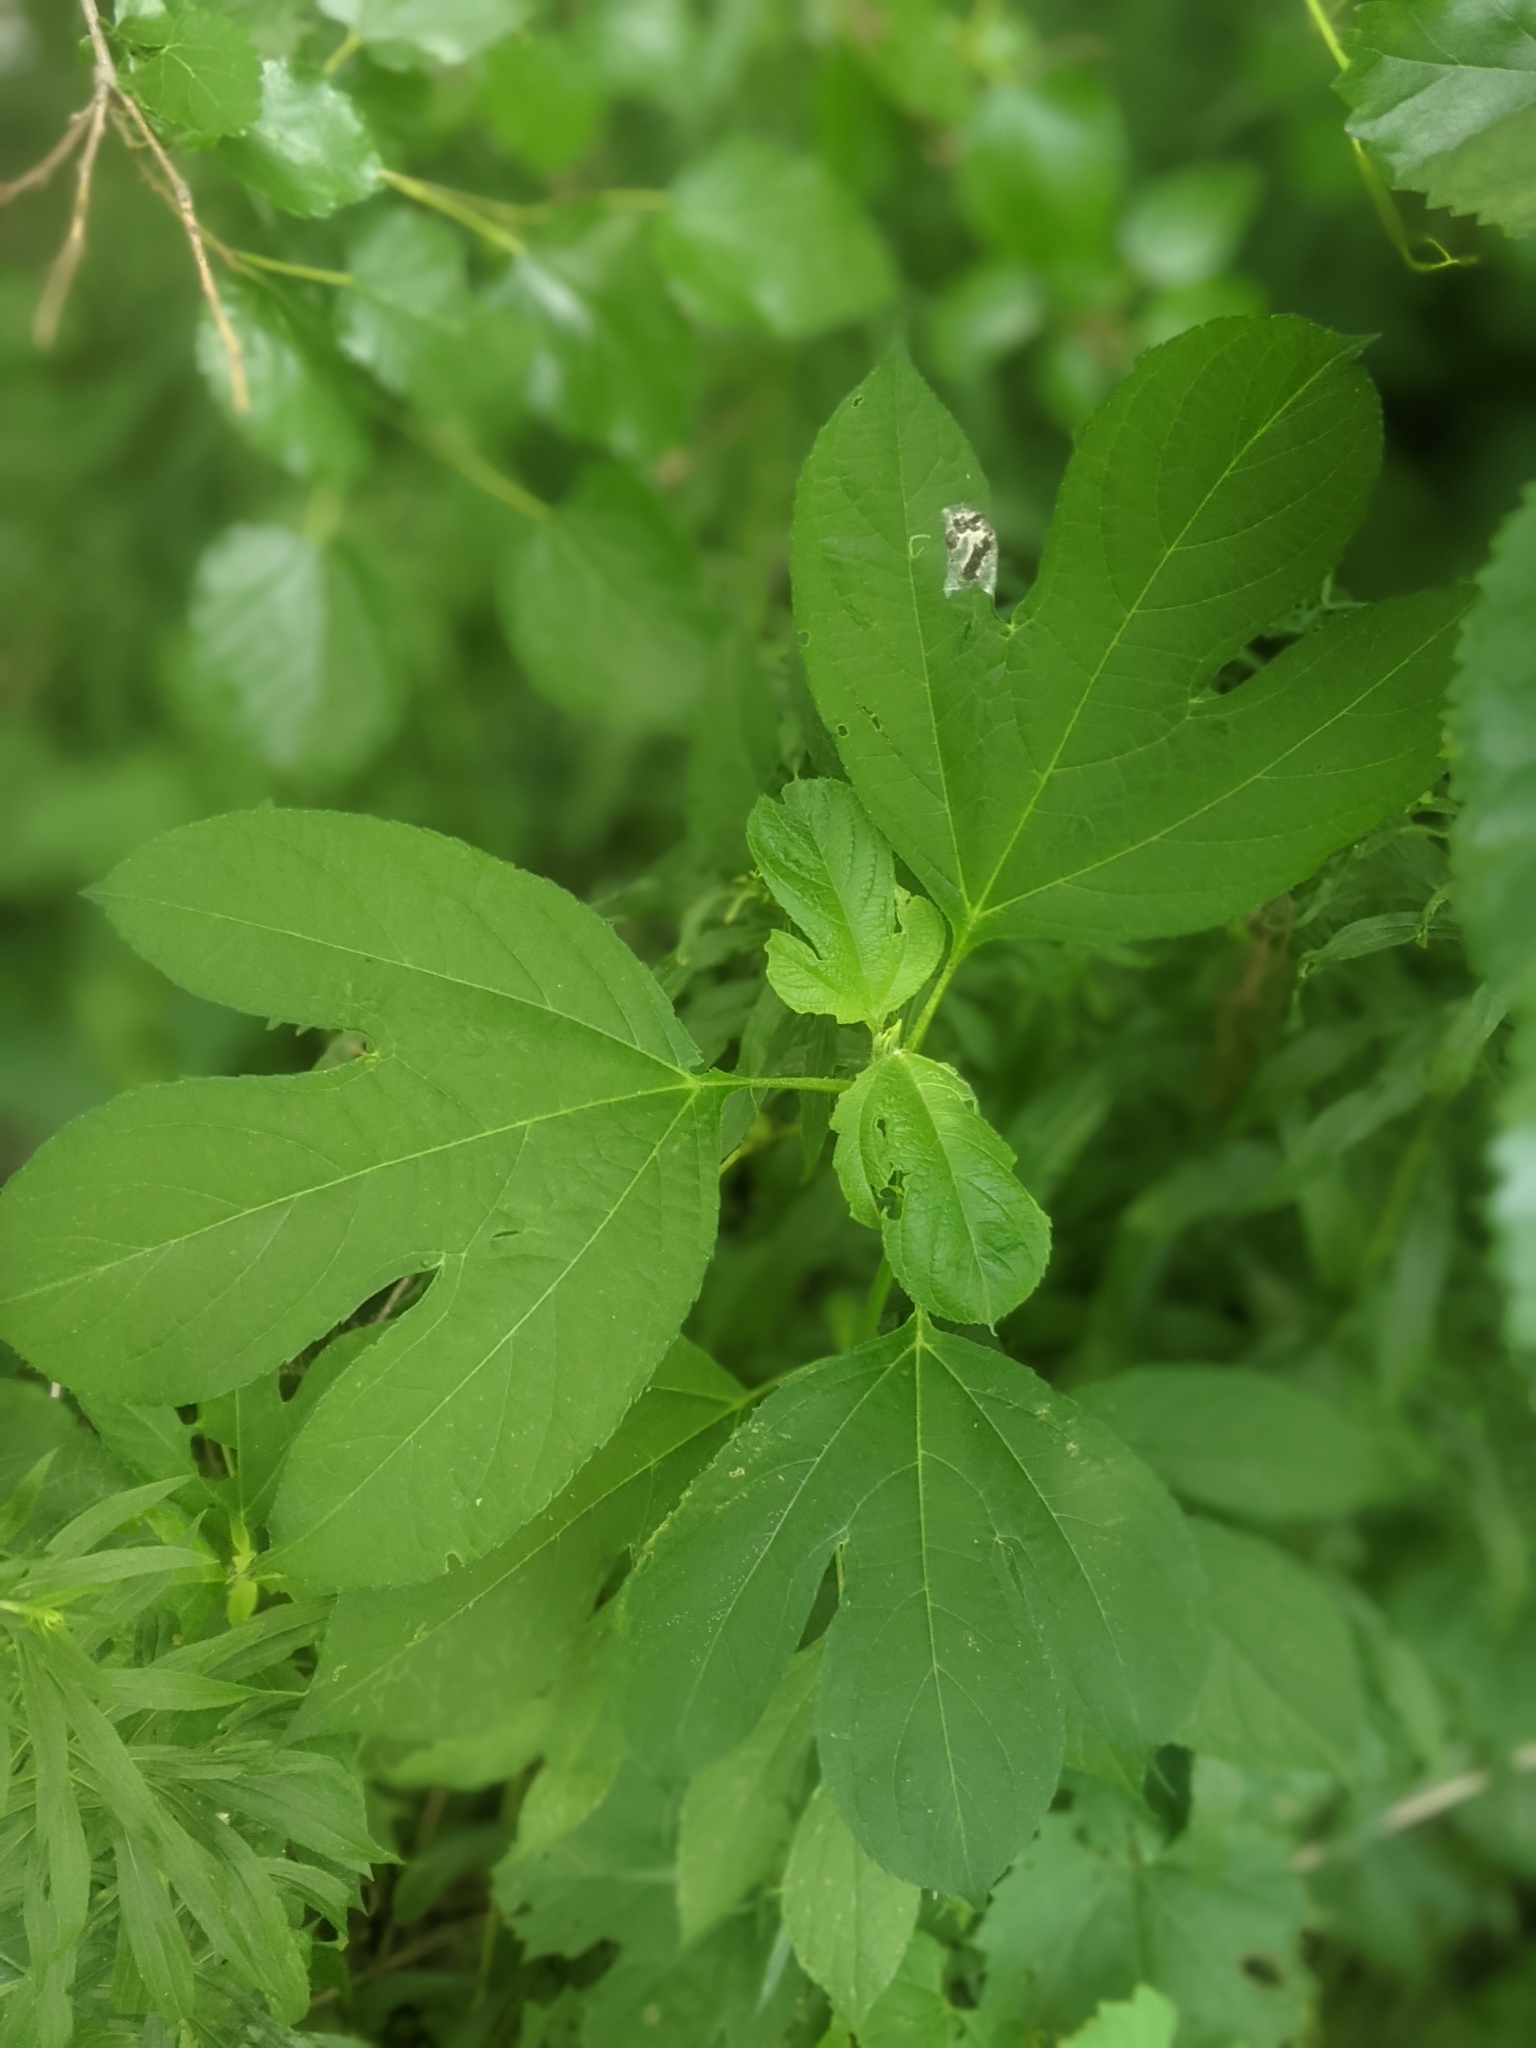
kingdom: Plantae
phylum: Tracheophyta
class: Magnoliopsida
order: Asterales
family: Asteraceae
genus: Ambrosia
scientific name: Ambrosia trifida
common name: Giant ragweed
